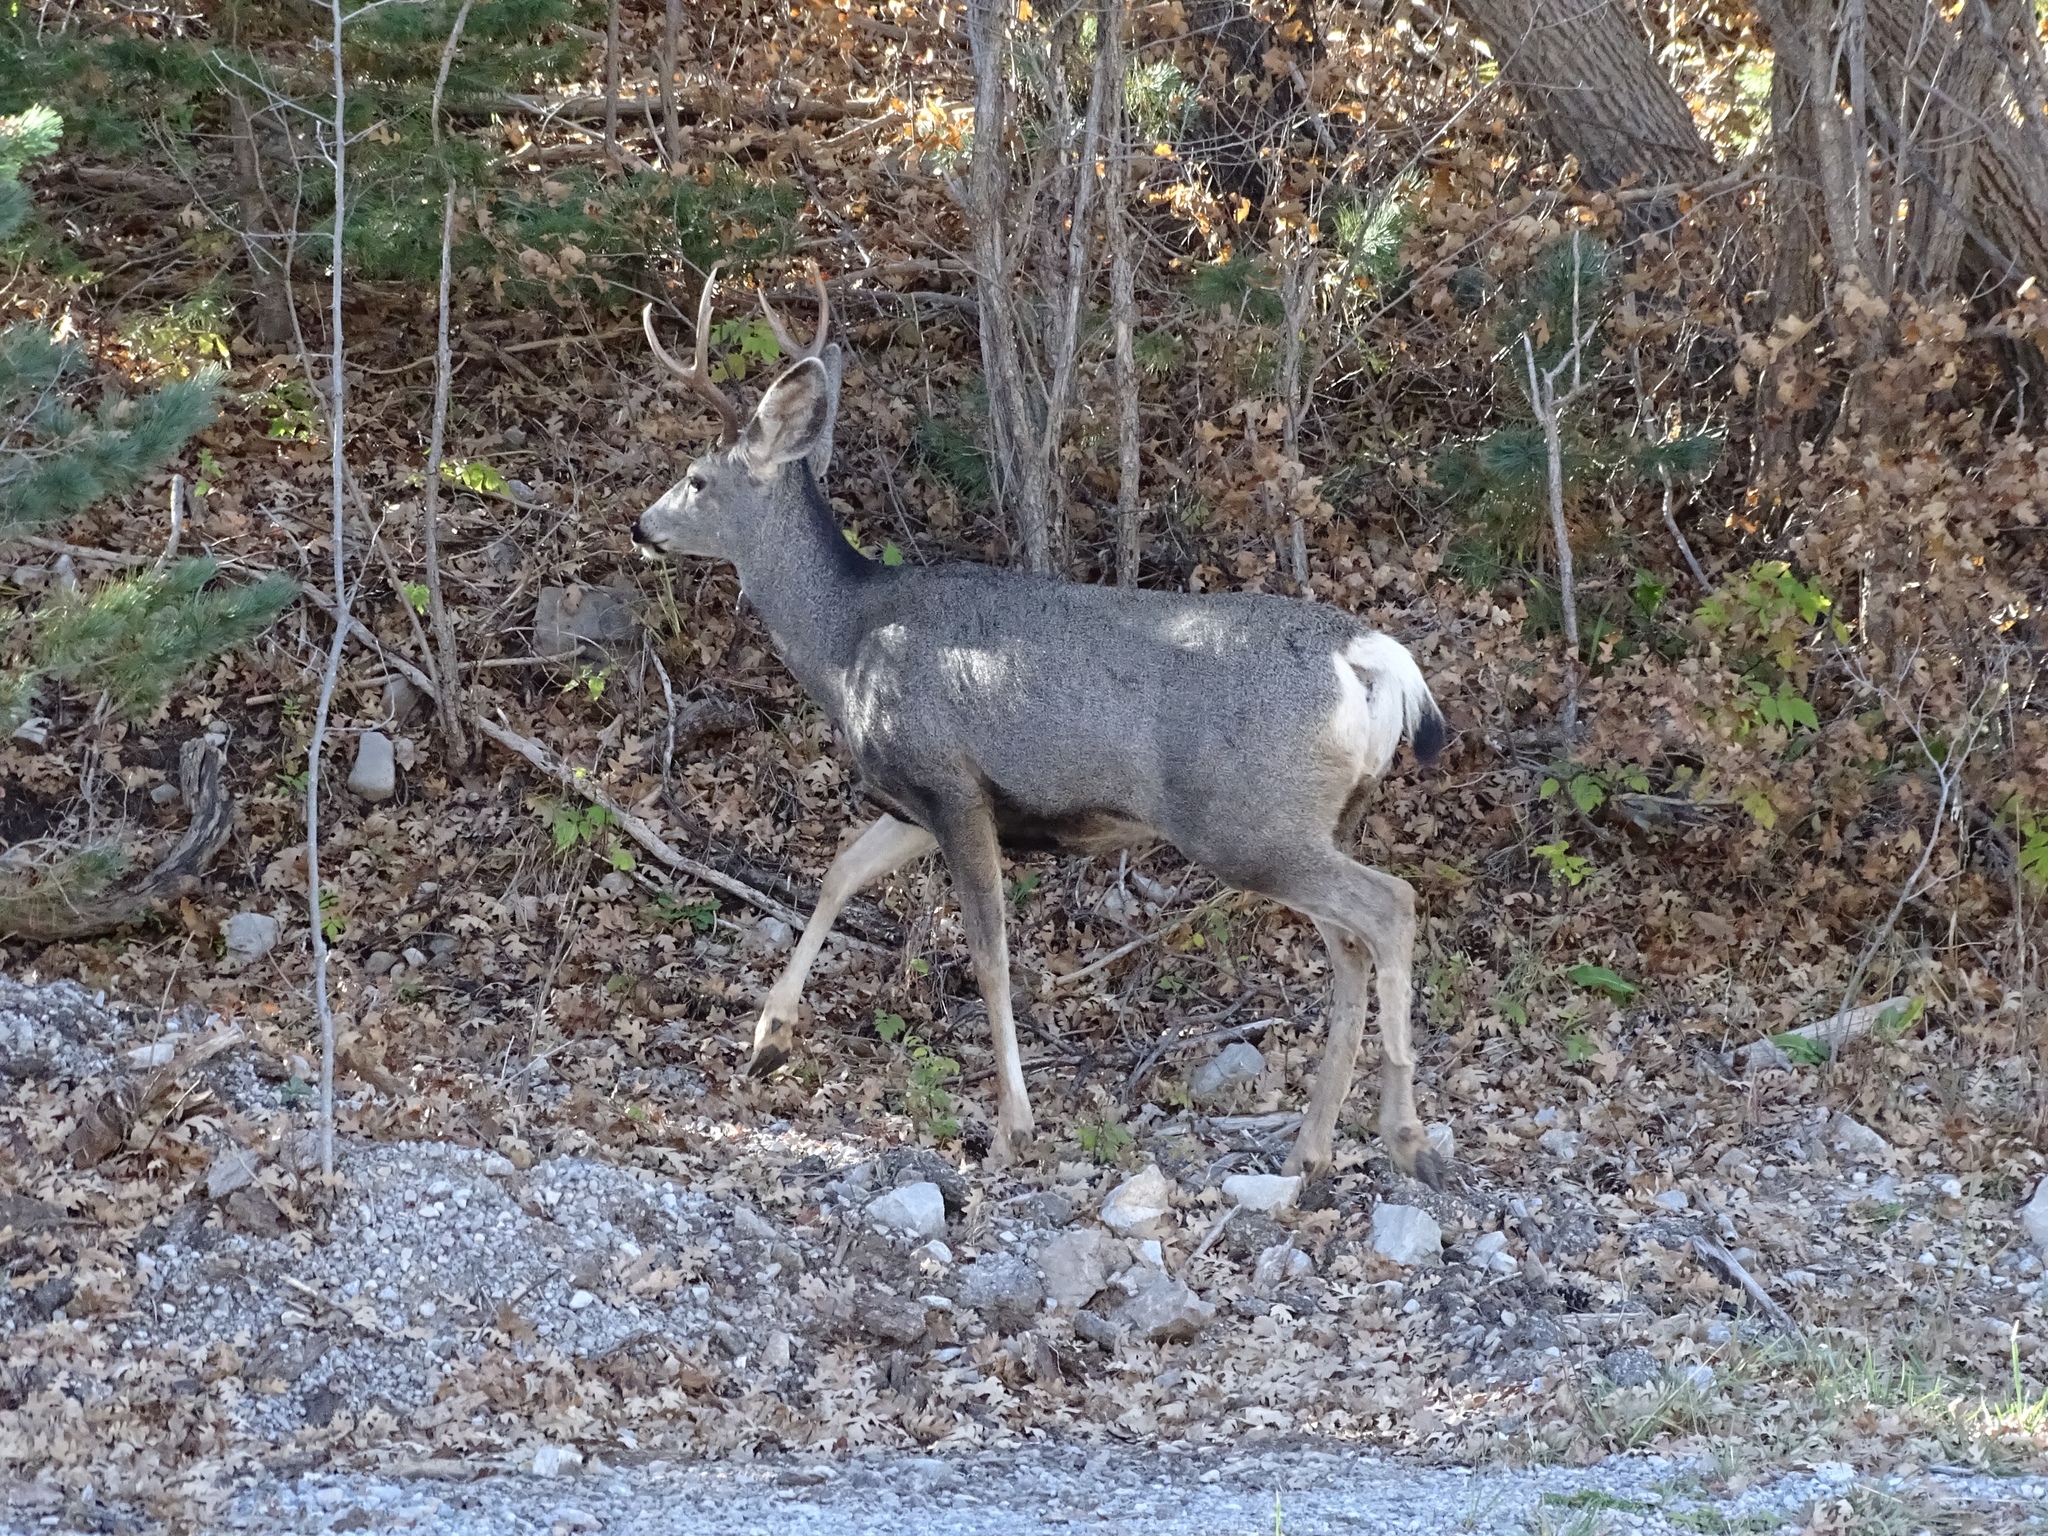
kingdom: Animalia
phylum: Chordata
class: Mammalia
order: Artiodactyla
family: Cervidae
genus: Odocoileus
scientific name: Odocoileus hemionus
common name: Mule deer
